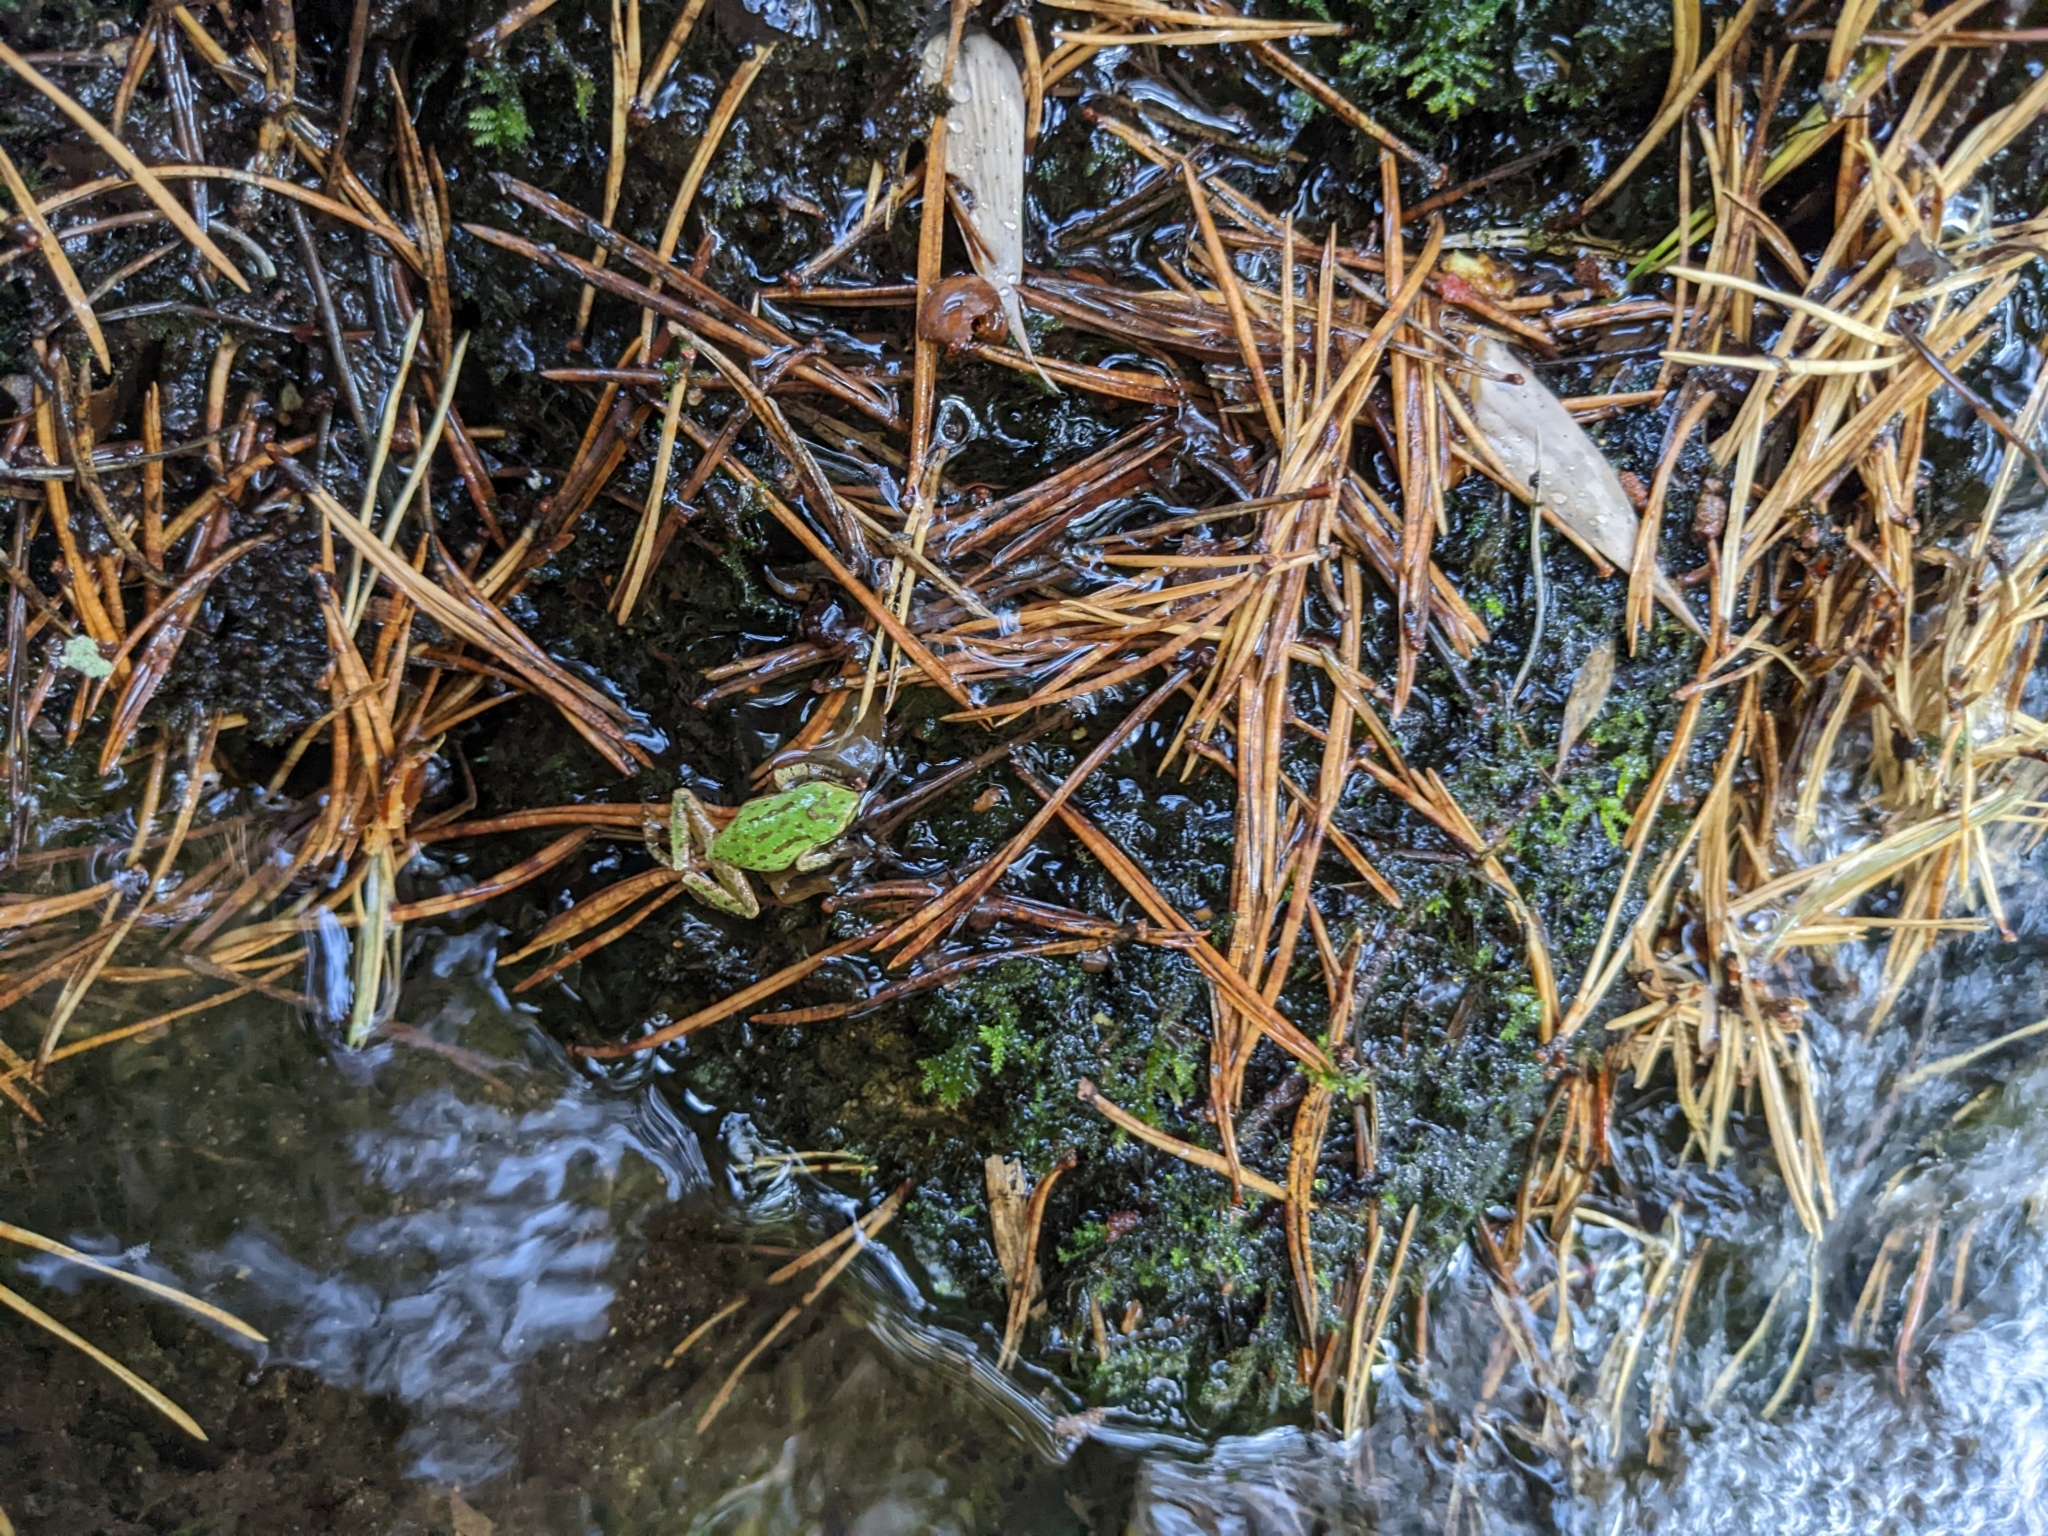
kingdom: Animalia
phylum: Chordata
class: Amphibia
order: Anura
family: Hylidae
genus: Pseudacris
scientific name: Pseudacris regilla
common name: Pacific chorus frog
